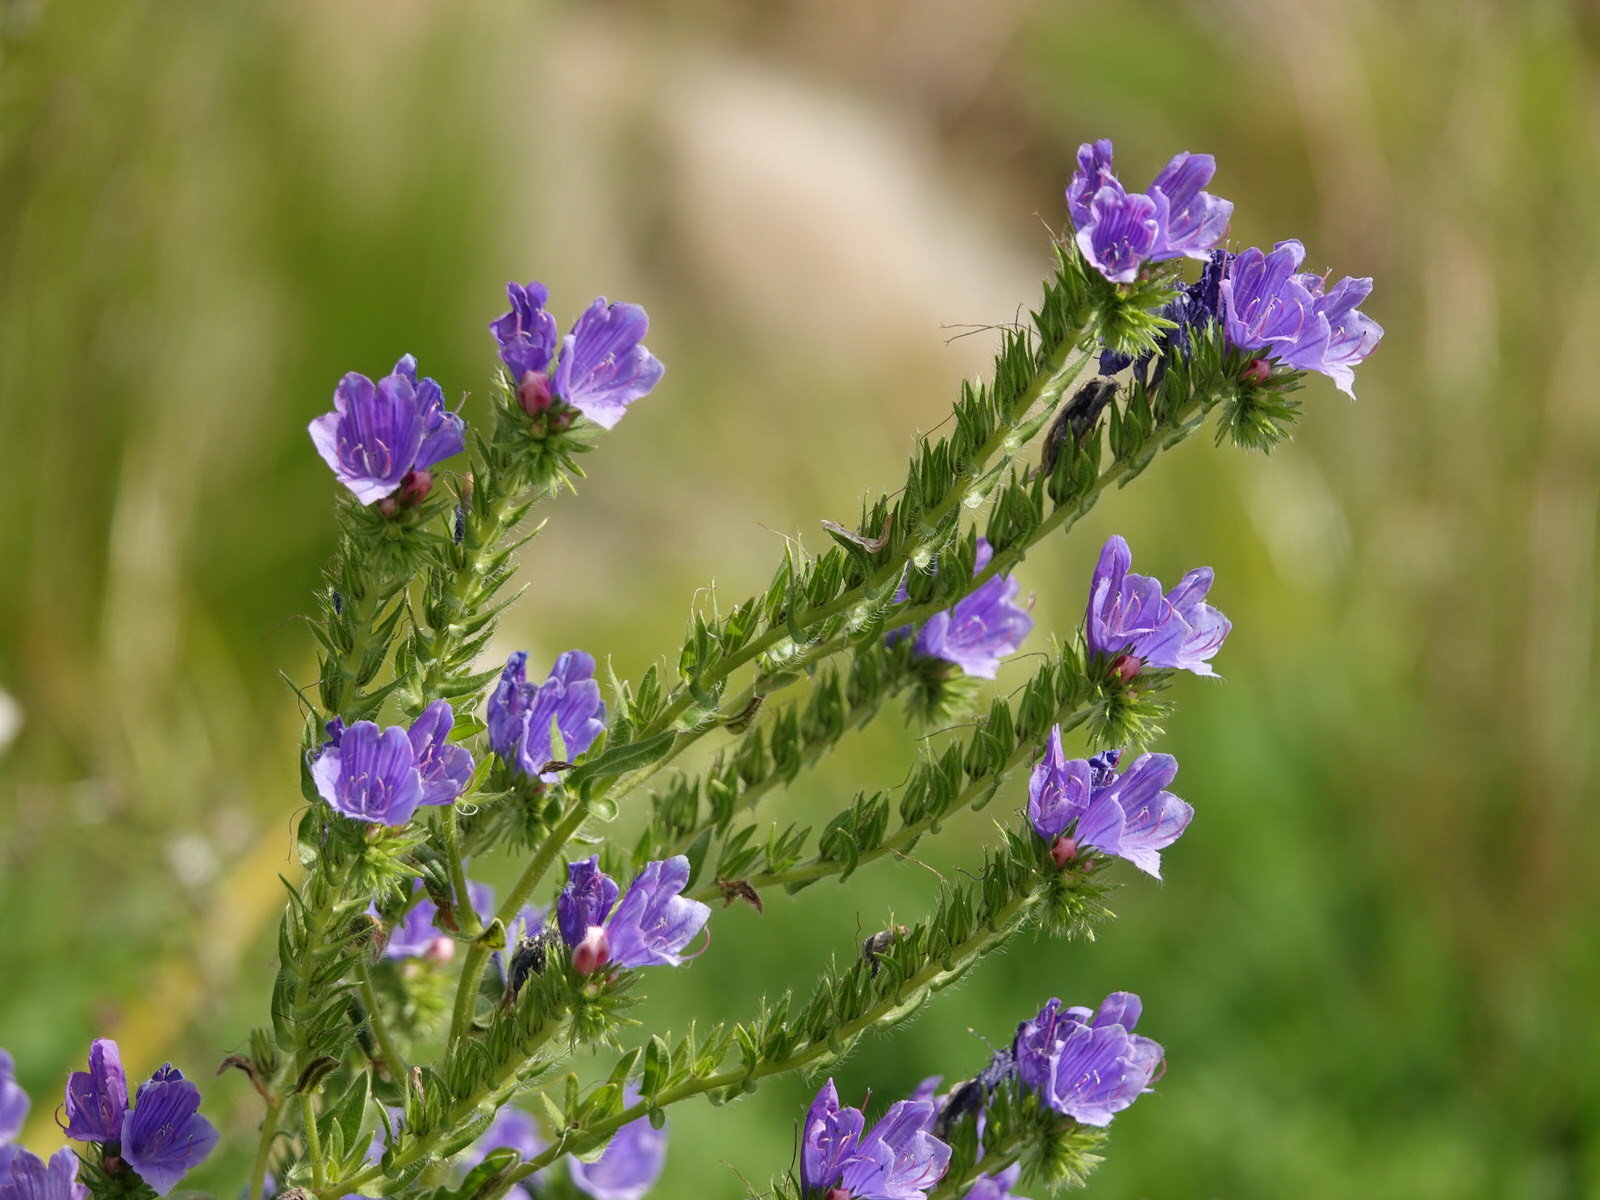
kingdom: Plantae
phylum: Tracheophyta
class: Magnoliopsida
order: Boraginales
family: Boraginaceae
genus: Echium
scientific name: Echium plantagineum
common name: Purple viper's-bugloss
